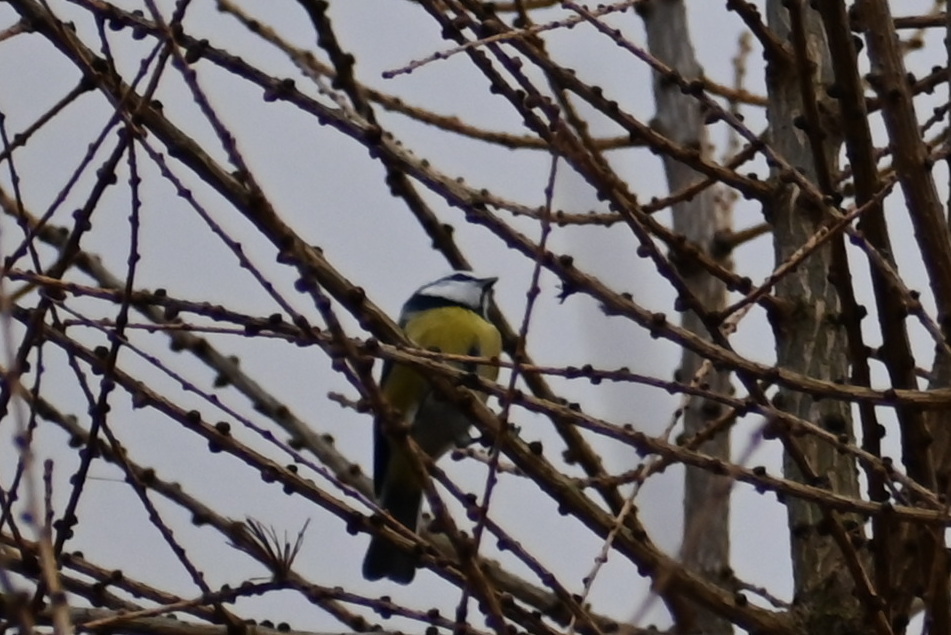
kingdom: Animalia
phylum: Chordata
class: Aves
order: Passeriformes
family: Paridae
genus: Cyanistes
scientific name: Cyanistes caeruleus
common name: Eurasian blue tit
